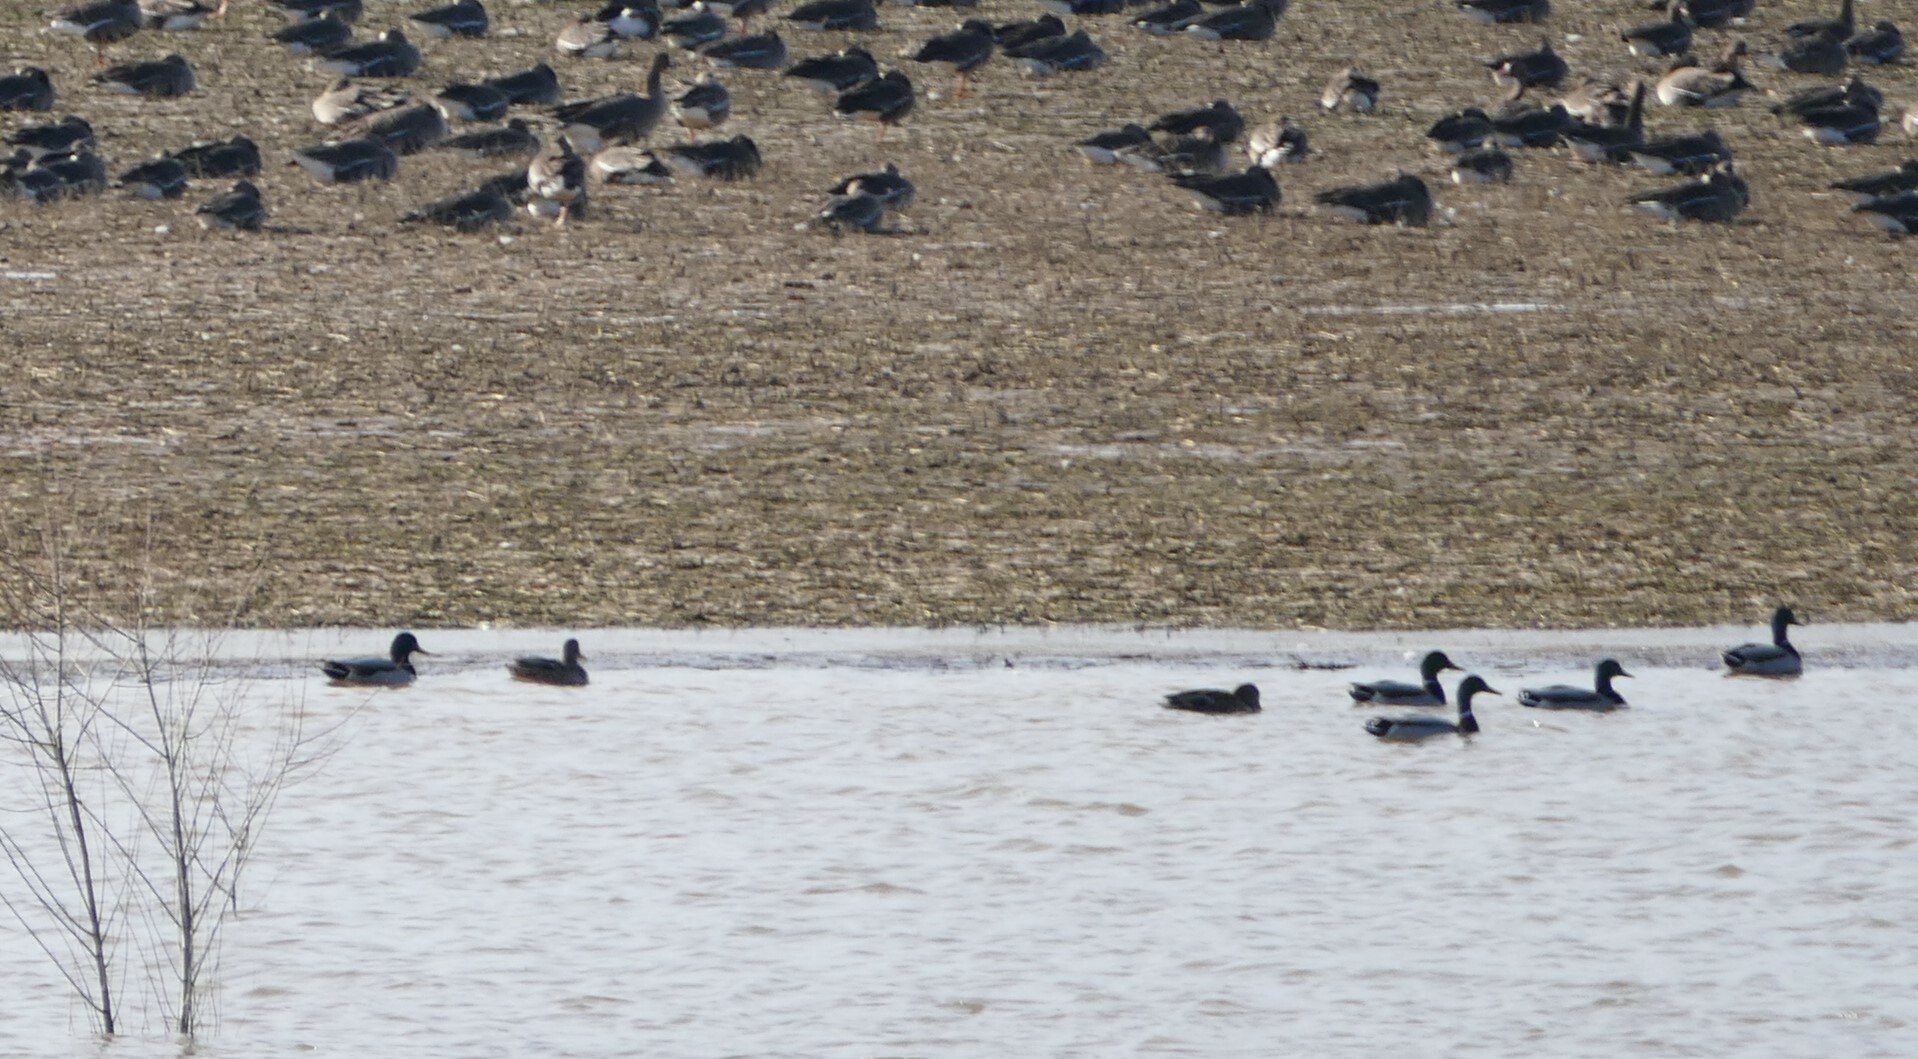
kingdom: Animalia
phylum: Chordata
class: Aves
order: Anseriformes
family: Anatidae
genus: Anas
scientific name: Anas platyrhynchos
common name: Mallard
